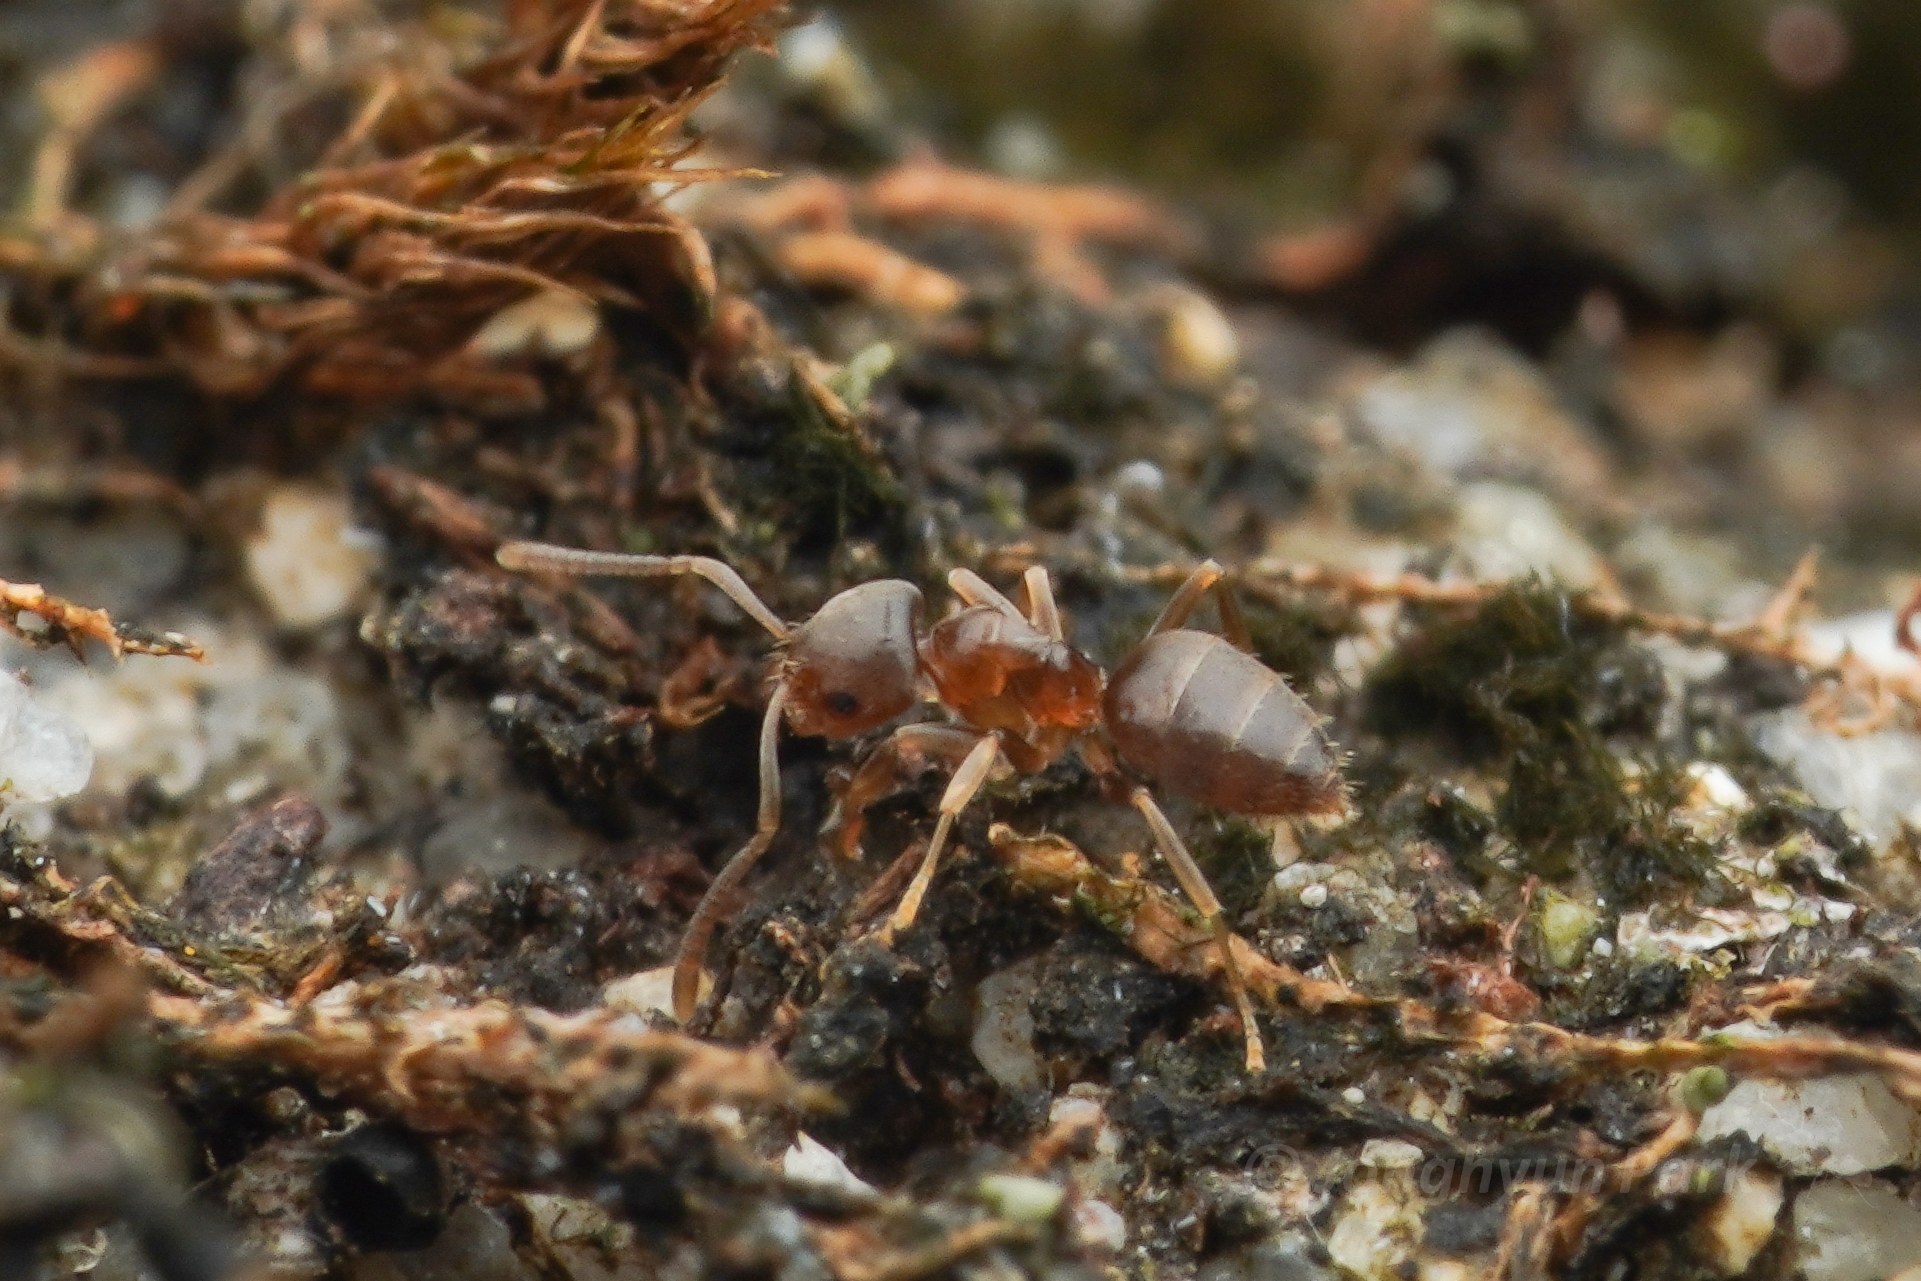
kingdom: Animalia
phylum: Arthropoda
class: Insecta
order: Hymenoptera
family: Formicidae
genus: Paraparatrechina
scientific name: Paraparatrechina
